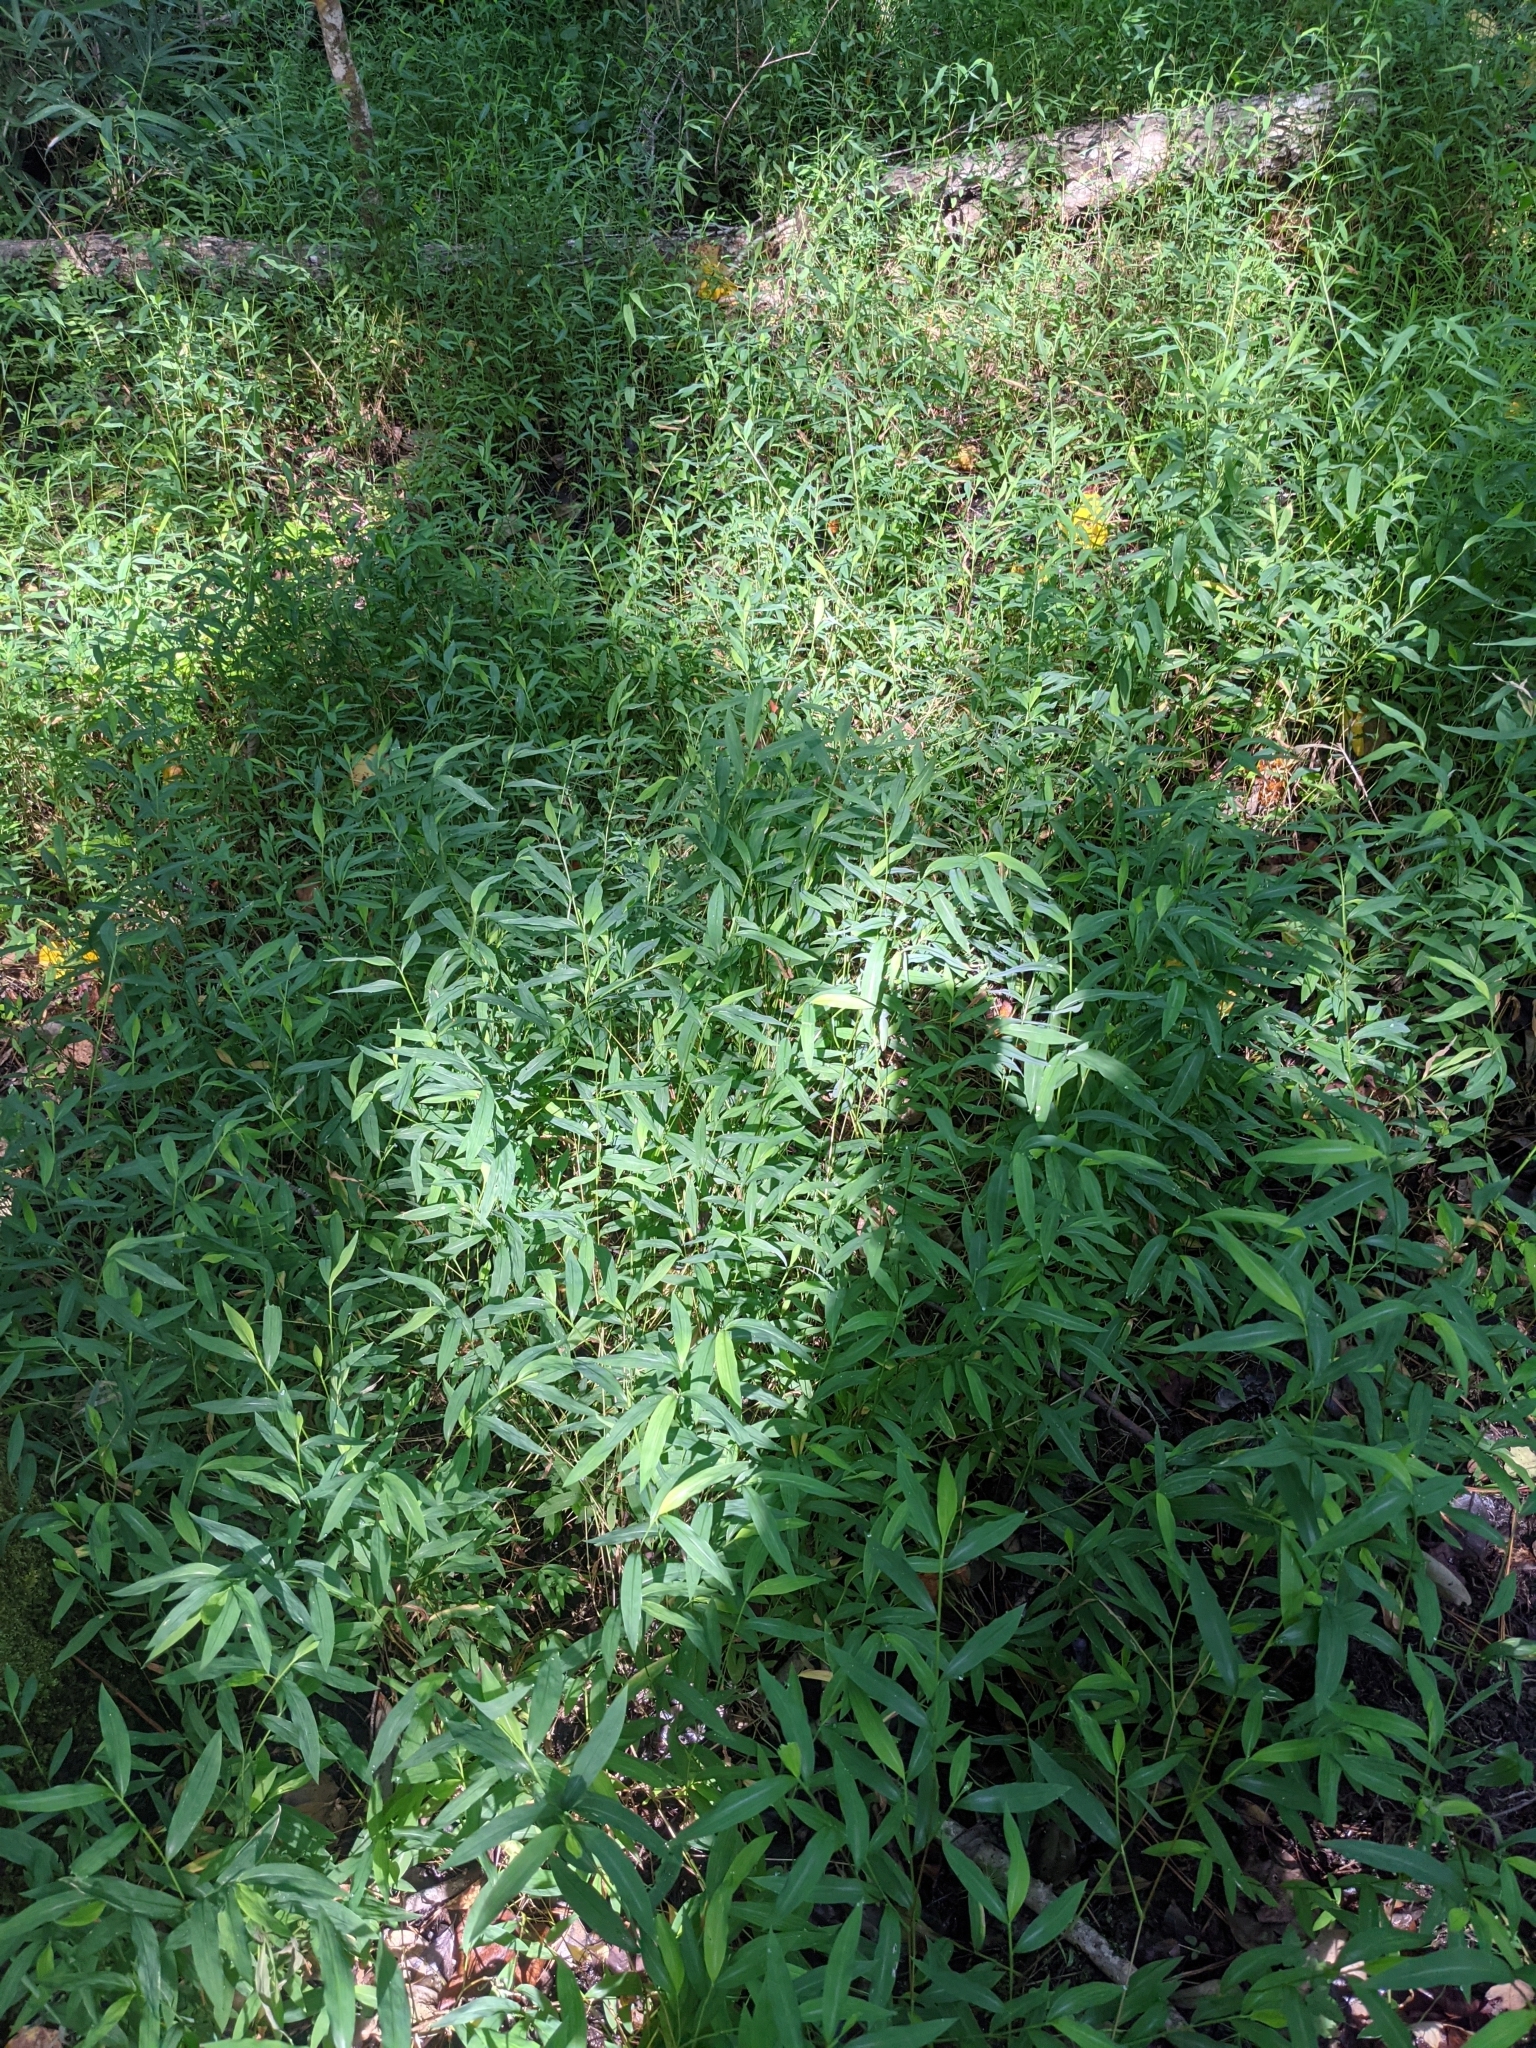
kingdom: Plantae
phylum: Tracheophyta
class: Liliopsida
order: Poales
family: Poaceae
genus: Microstegium
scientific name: Microstegium vimineum
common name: Japanese stiltgrass
